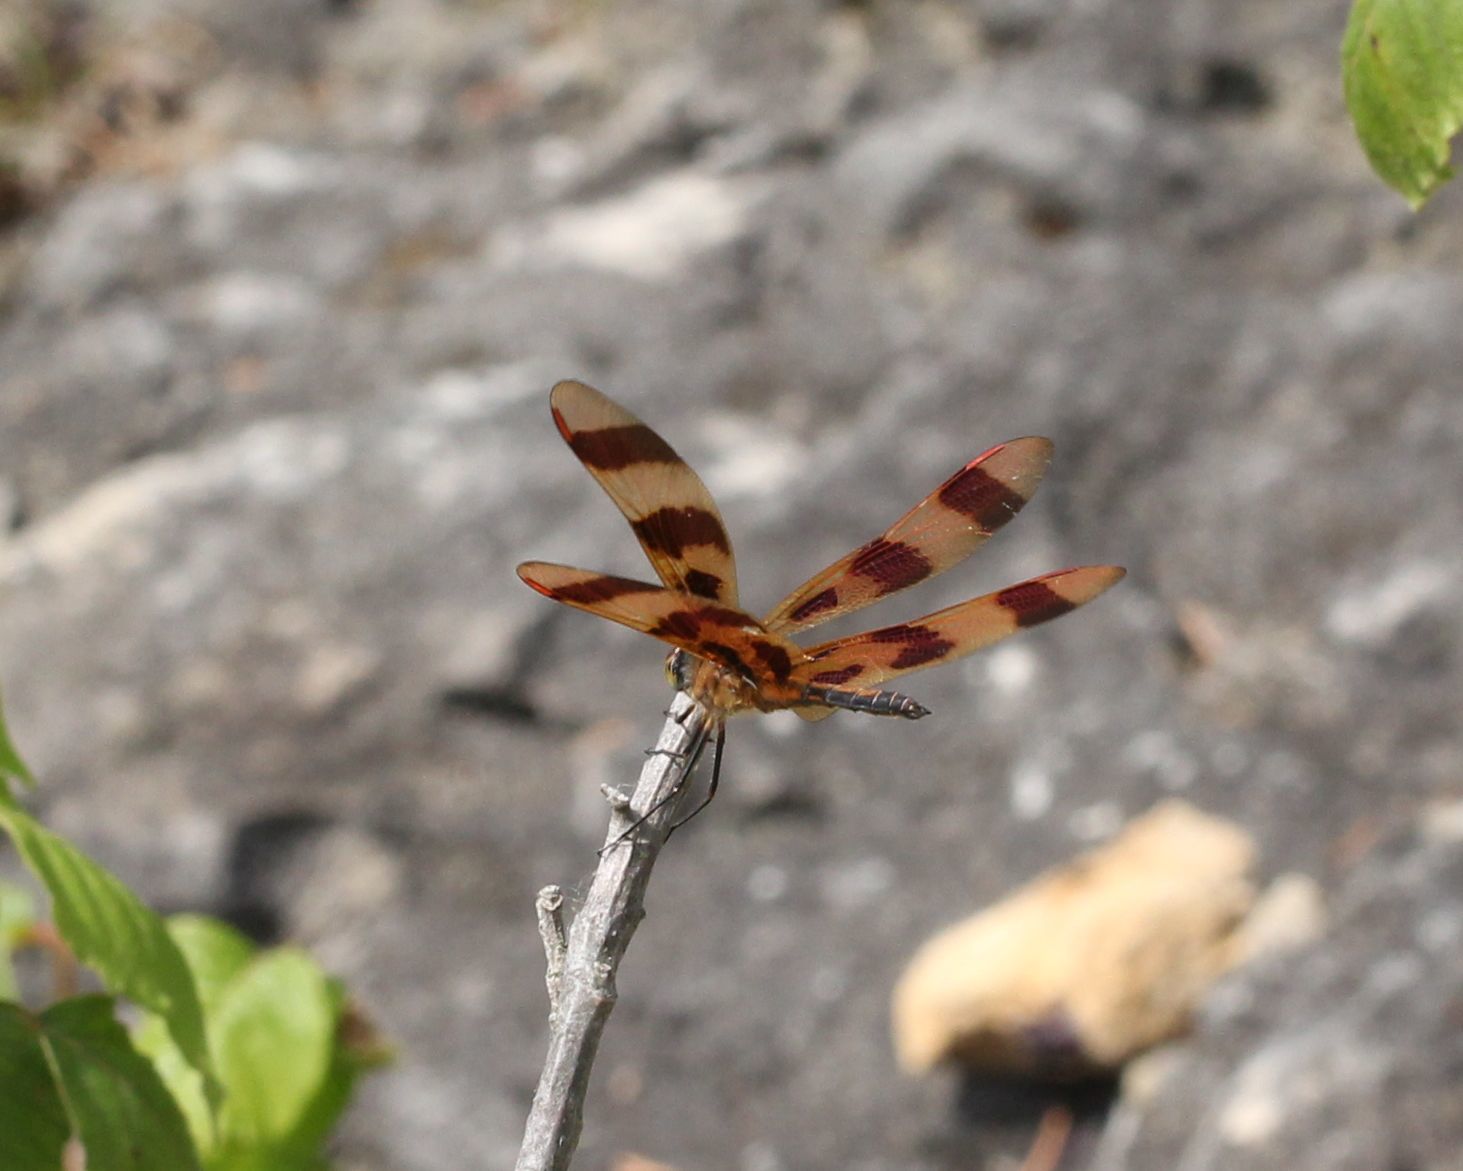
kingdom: Animalia
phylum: Arthropoda
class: Insecta
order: Odonata
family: Libellulidae
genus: Celithemis
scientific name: Celithemis eponina
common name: Halloween pennant
